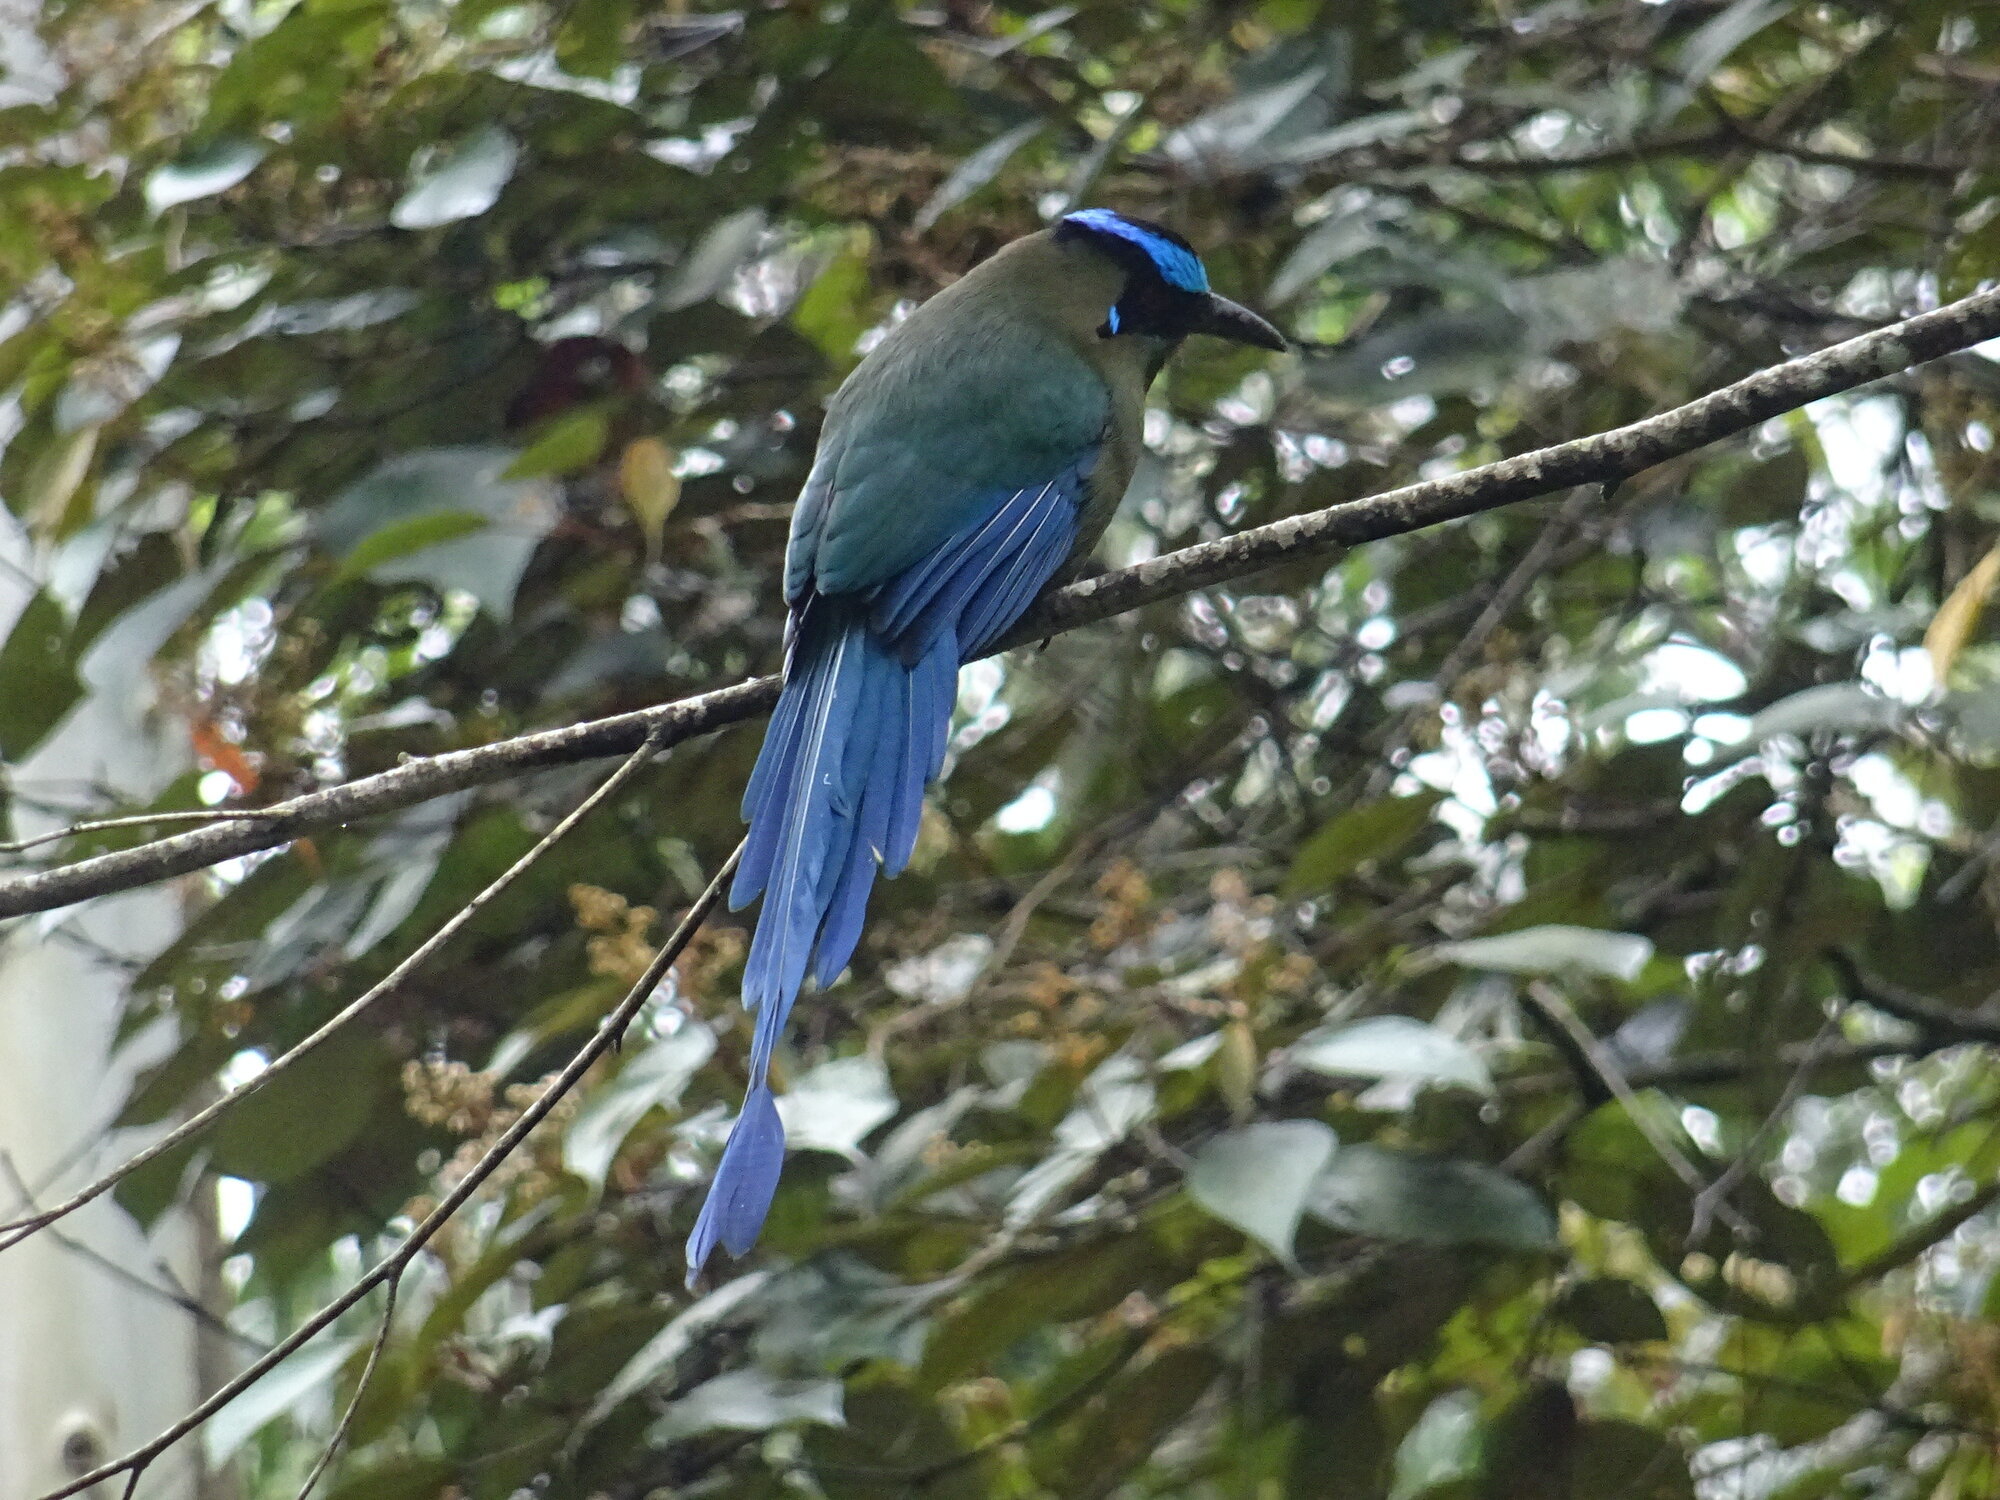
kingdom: Animalia
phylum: Chordata
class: Aves
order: Coraciiformes
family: Momotidae
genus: Momotus
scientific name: Momotus aequatorialis
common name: Andean motmot
